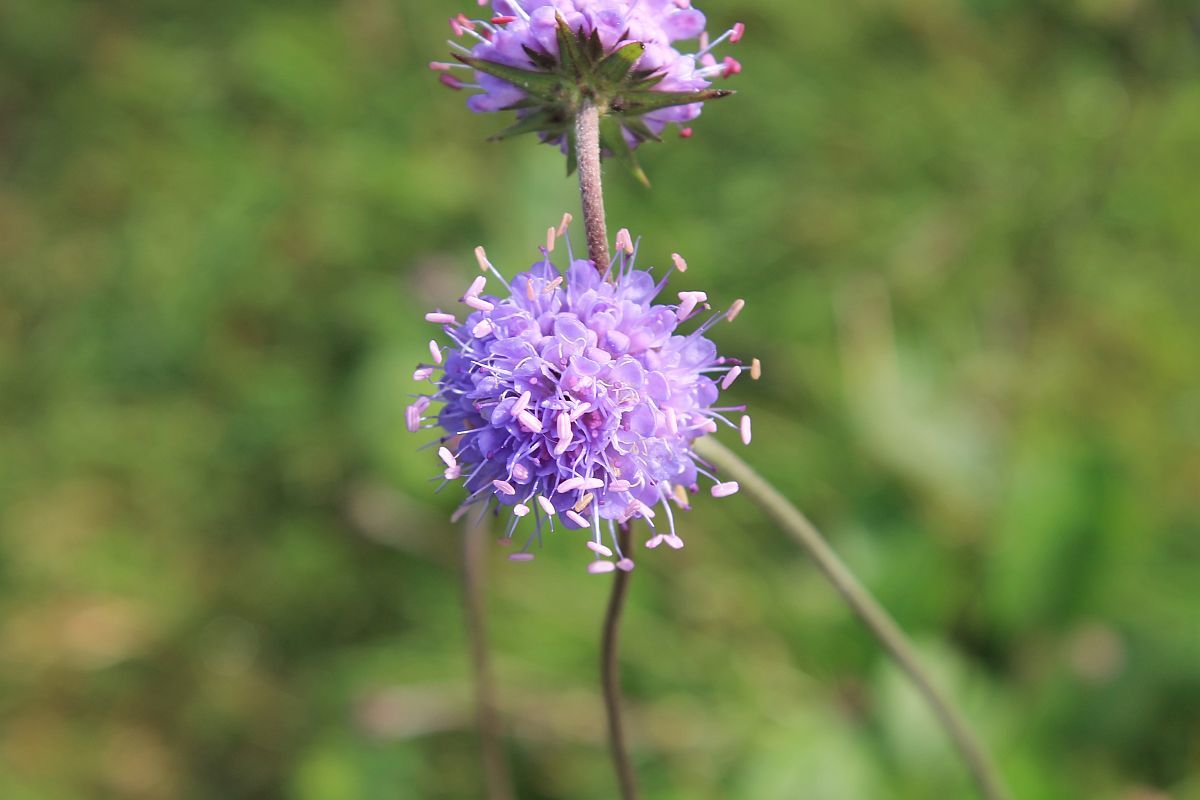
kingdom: Plantae
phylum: Tracheophyta
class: Magnoliopsida
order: Dipsacales
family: Caprifoliaceae
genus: Succisa
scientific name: Succisa pratensis
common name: Devil's-bit
